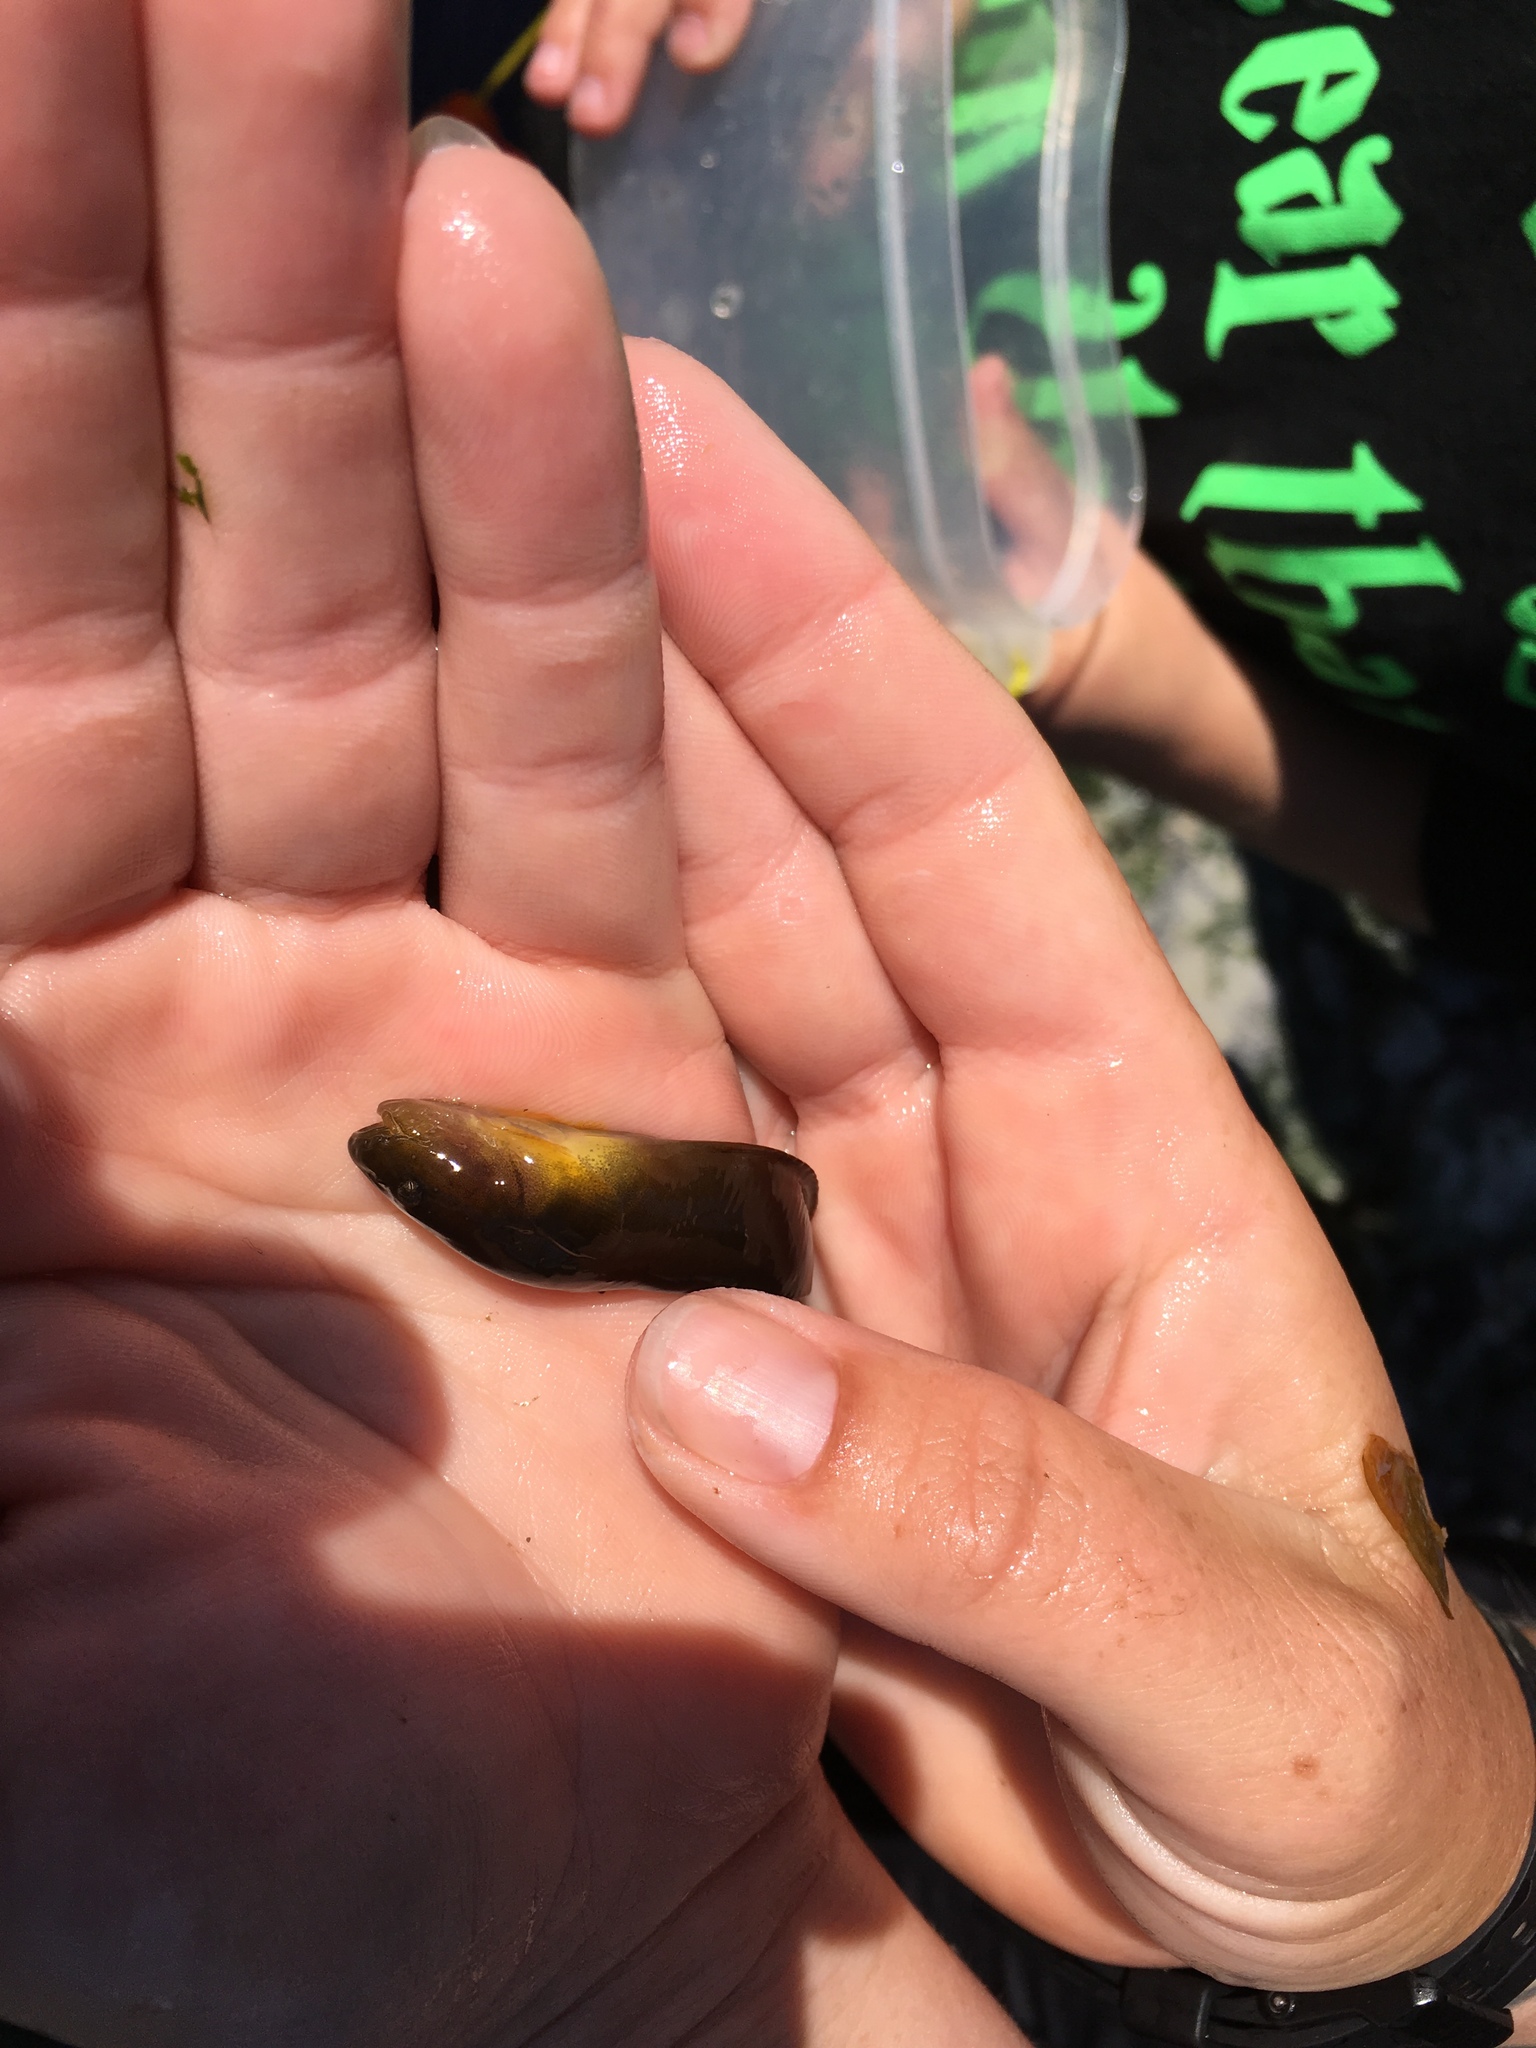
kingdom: Animalia
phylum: Chordata
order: Scorpaeniformes
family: Liparidae
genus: Liparis
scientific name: Liparis florae
